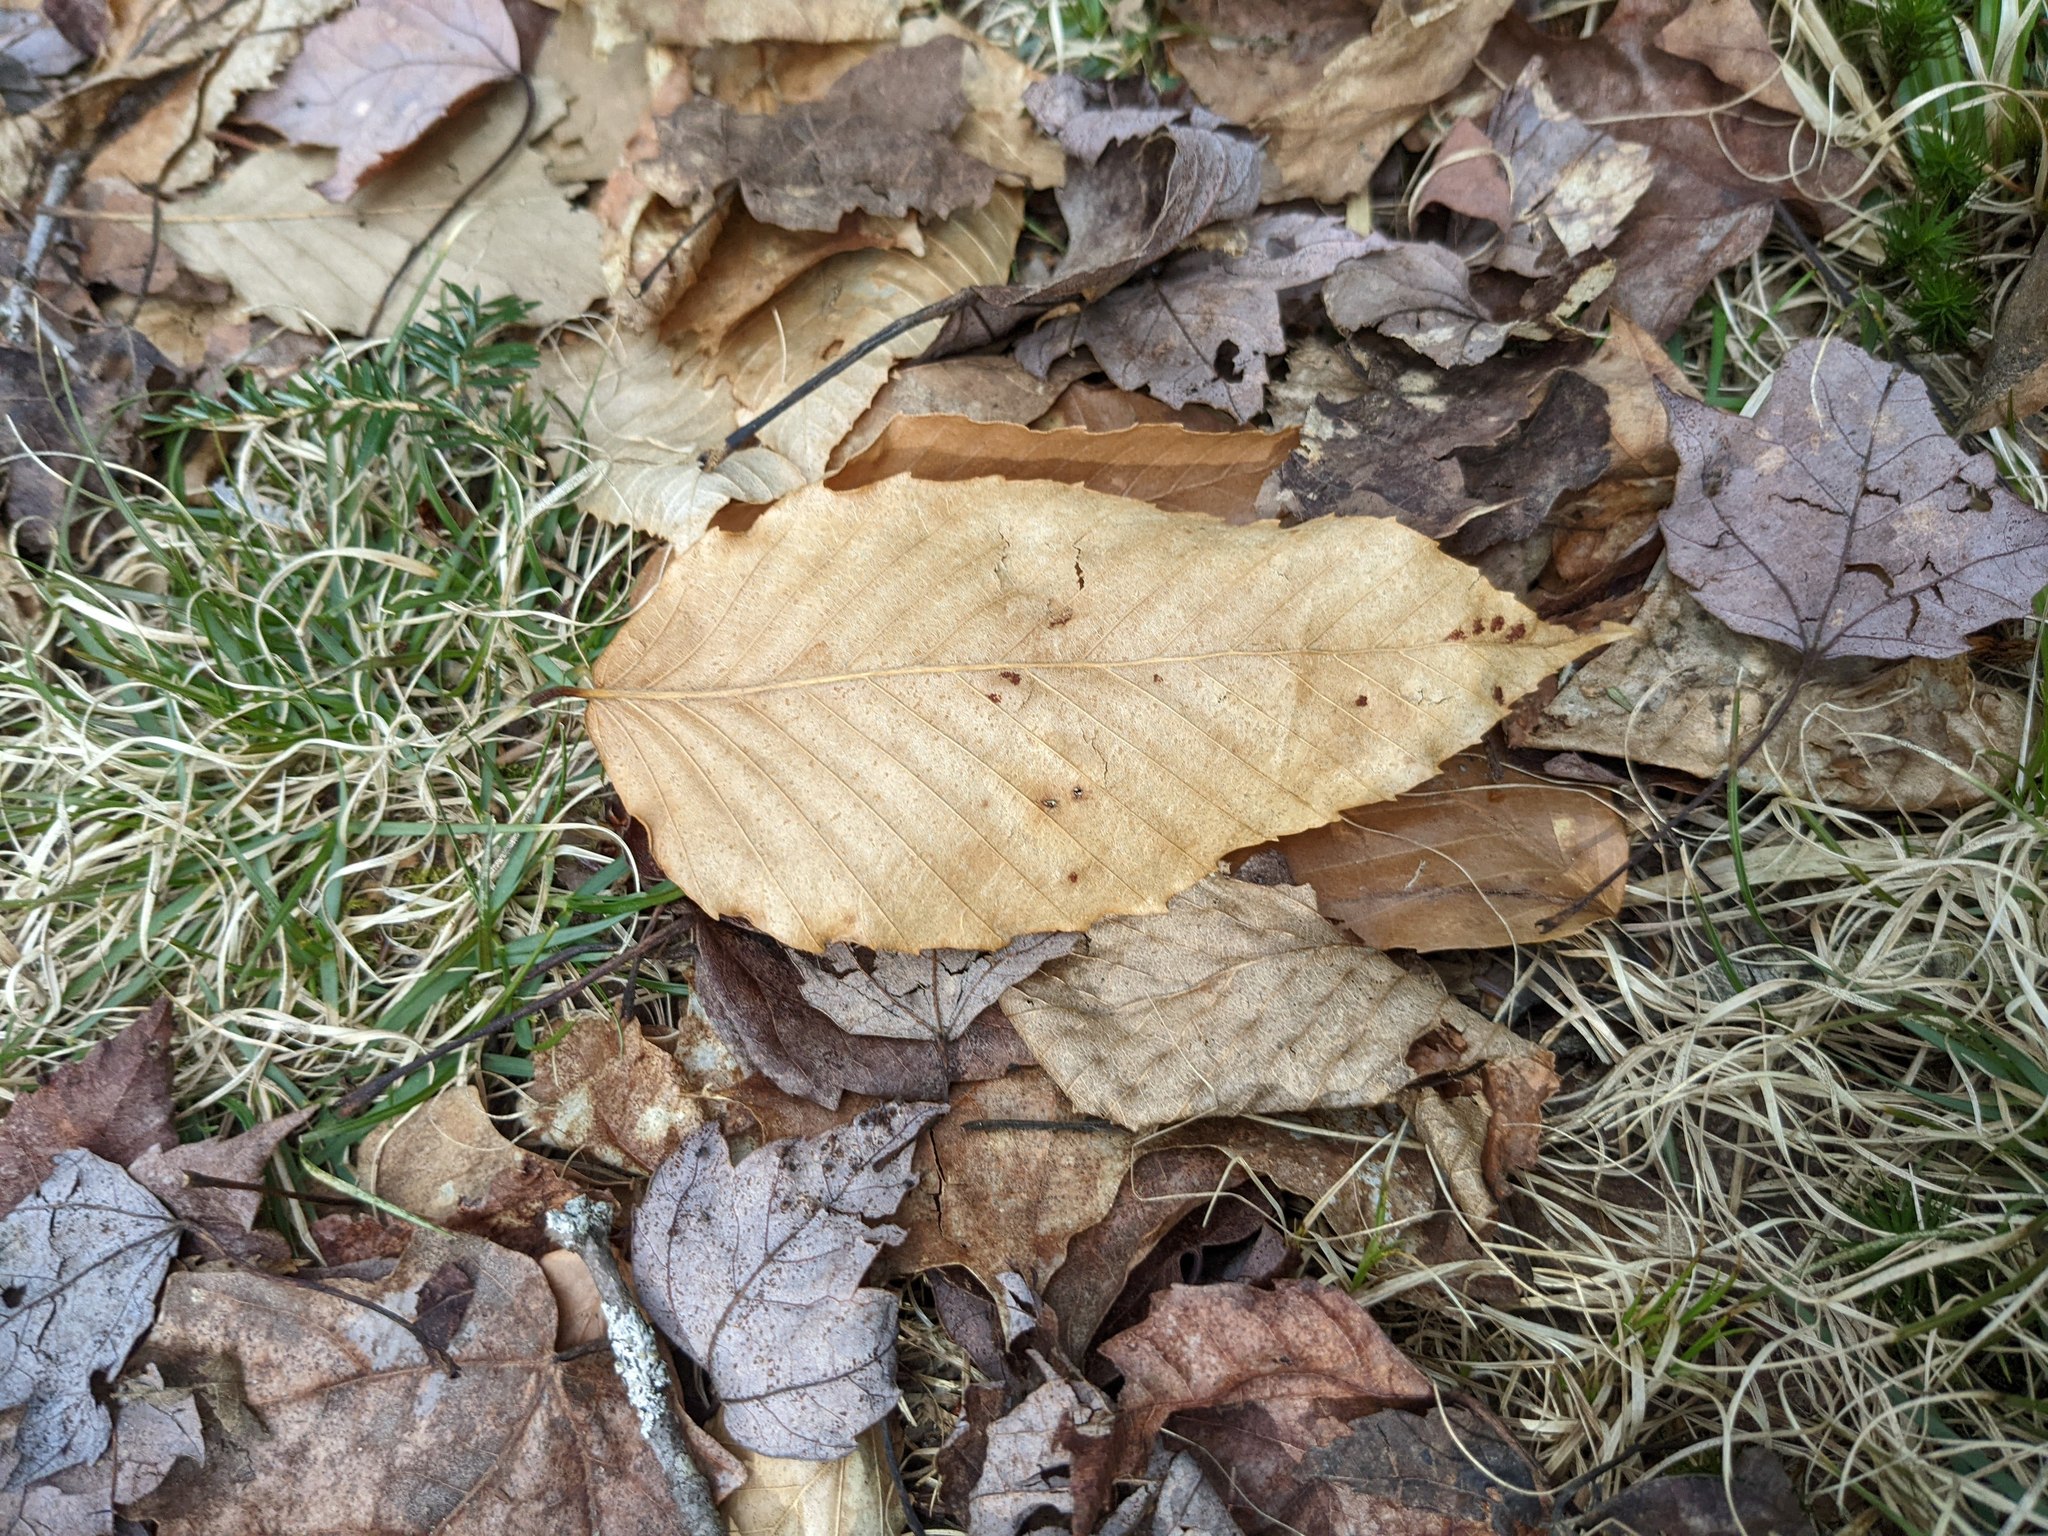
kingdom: Plantae
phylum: Tracheophyta
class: Magnoliopsida
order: Fagales
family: Fagaceae
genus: Fagus
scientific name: Fagus grandifolia
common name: American beech
